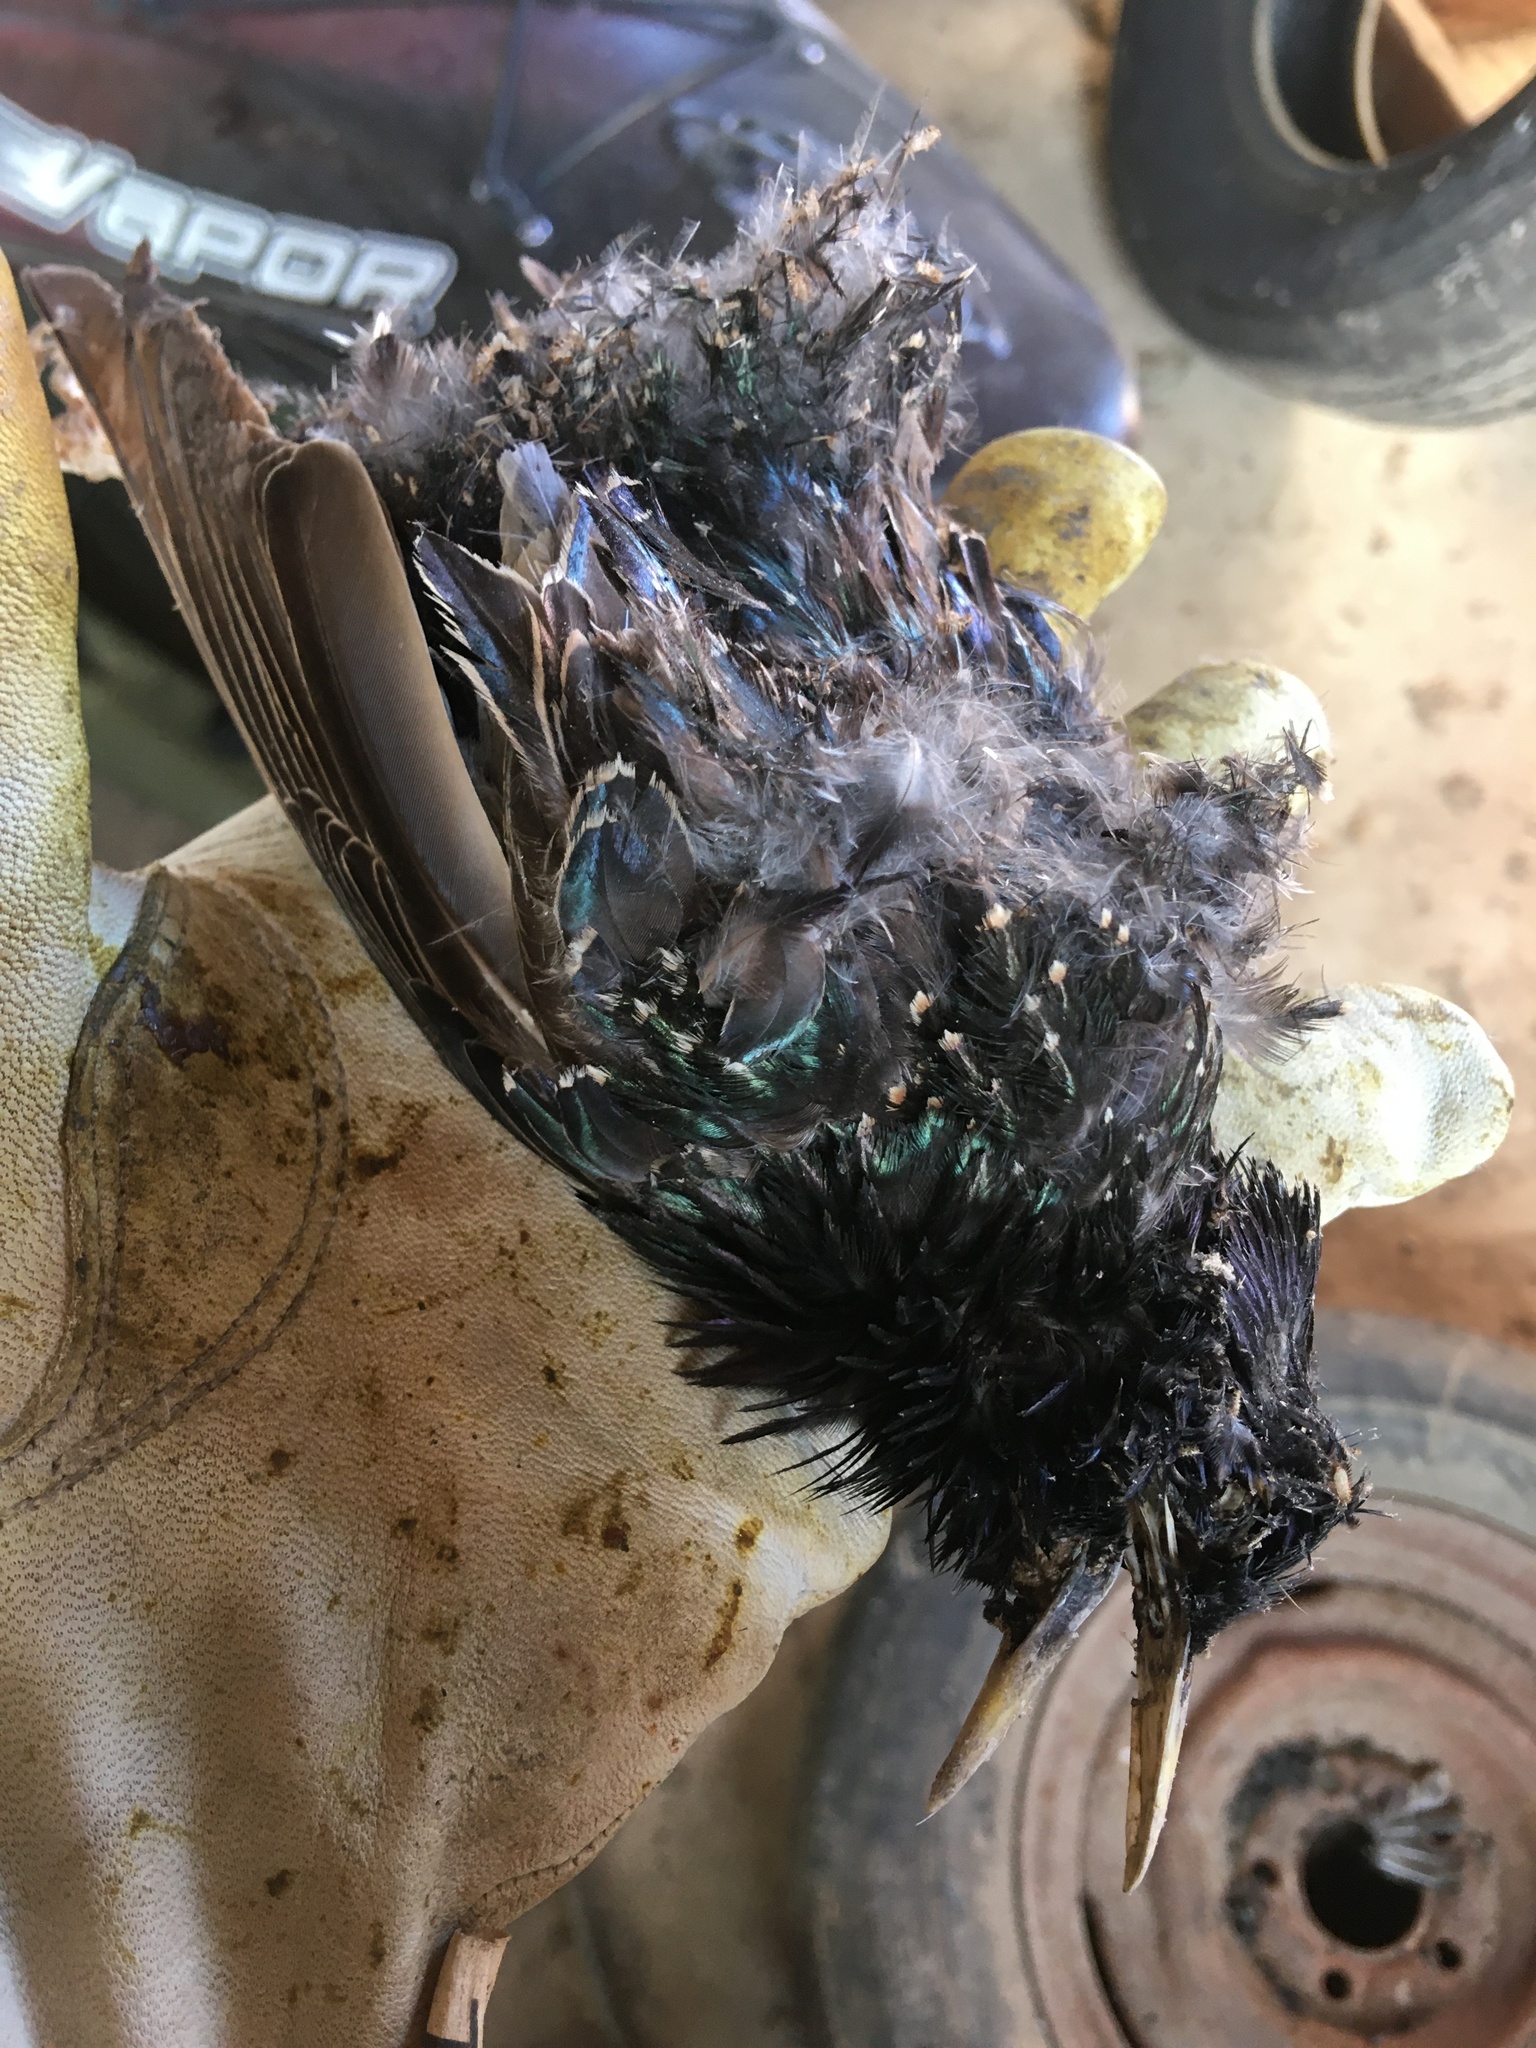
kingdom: Animalia
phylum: Chordata
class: Aves
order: Passeriformes
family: Sturnidae
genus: Sturnus
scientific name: Sturnus vulgaris
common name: Common starling
